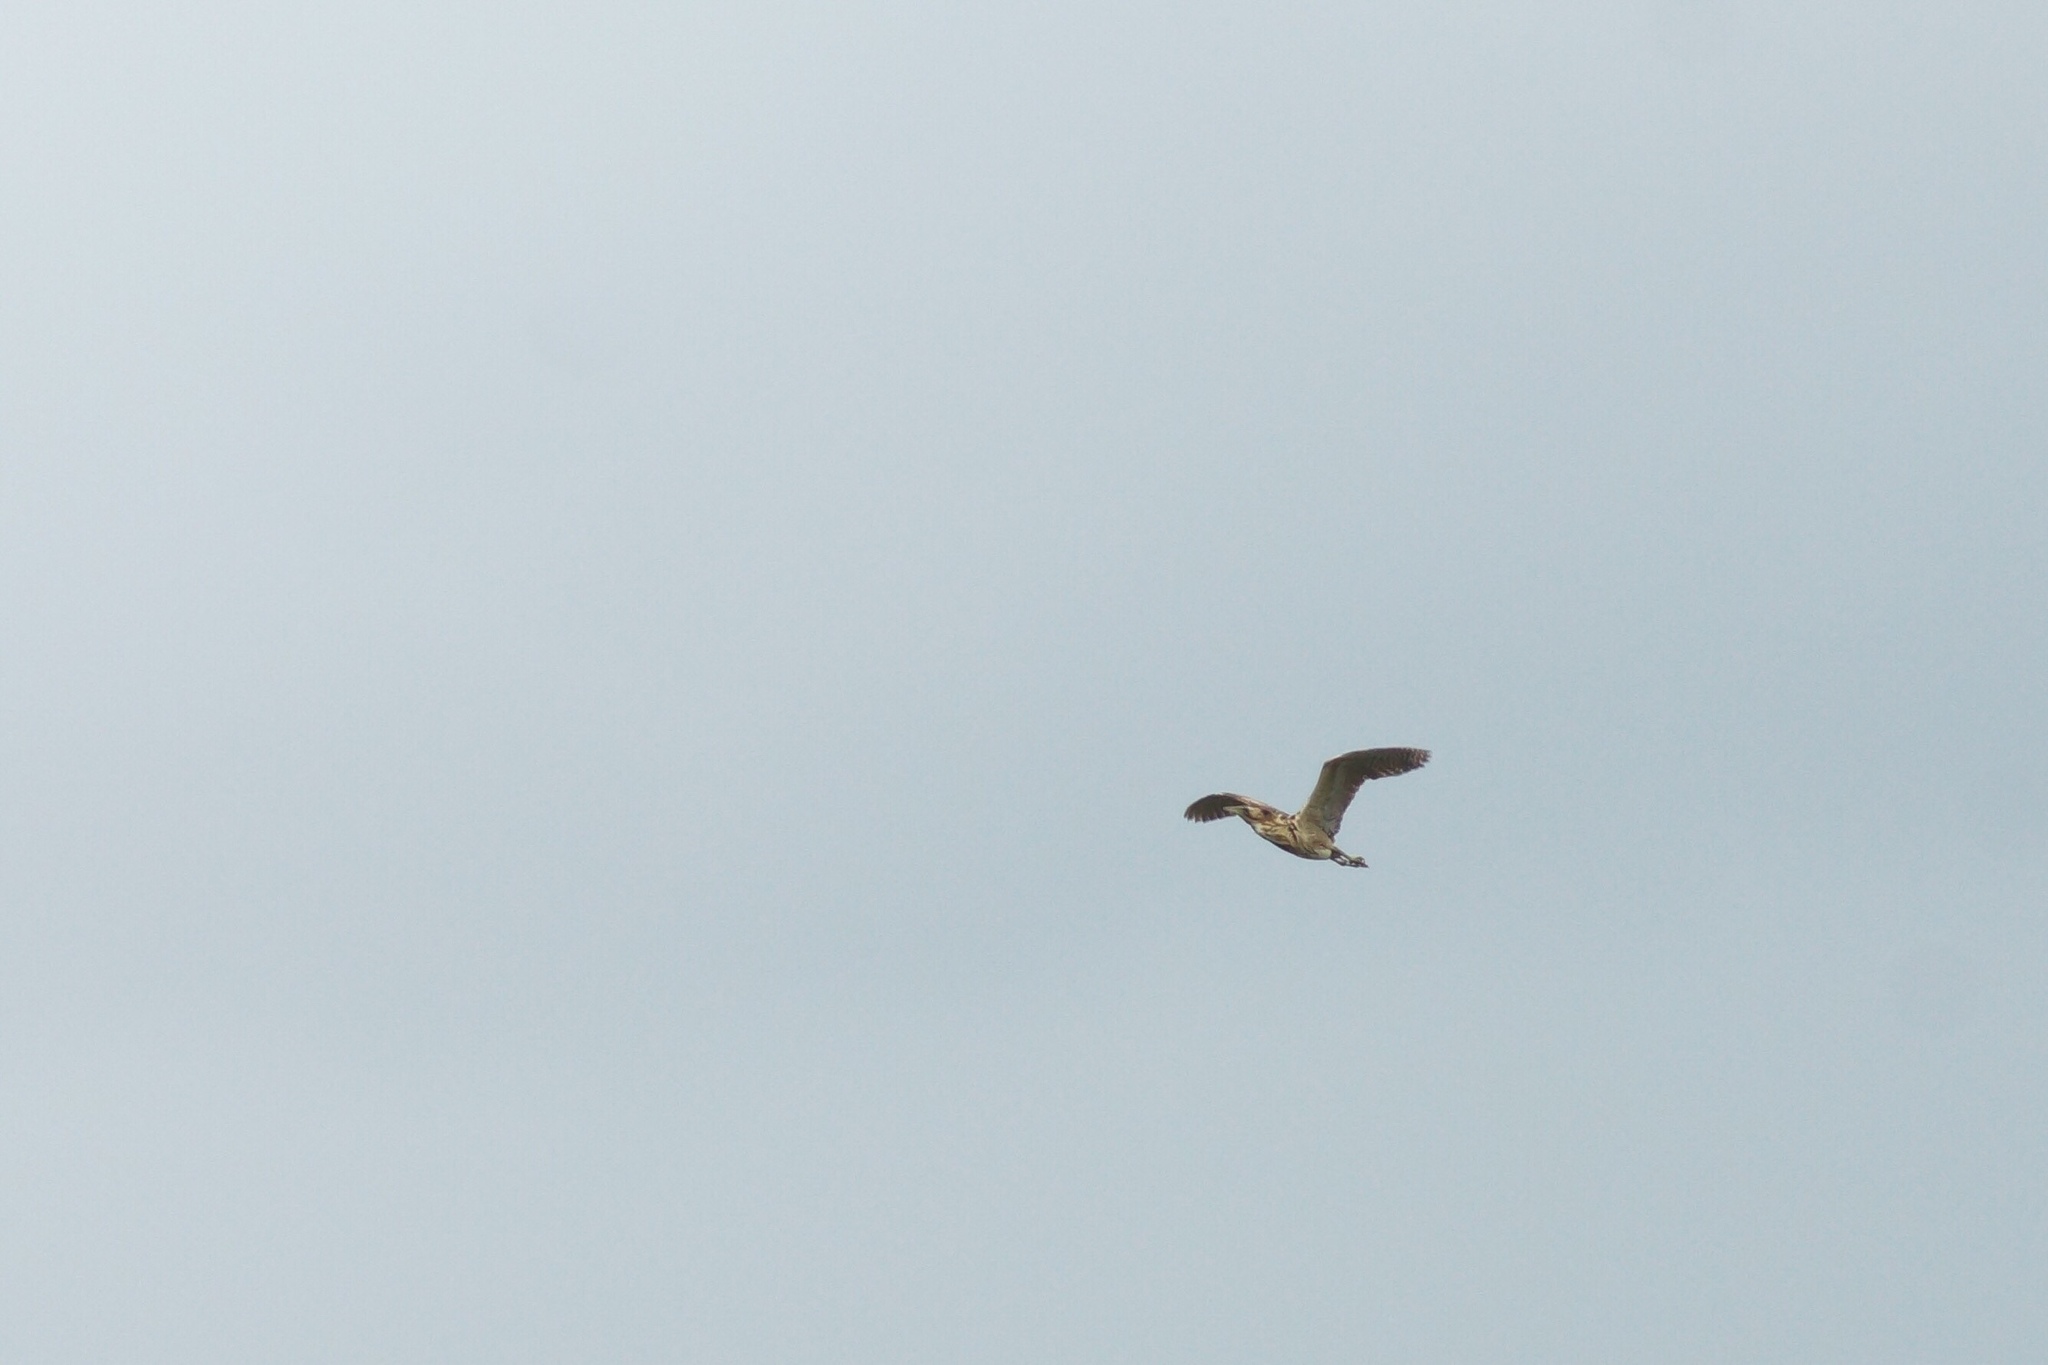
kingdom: Animalia
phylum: Chordata
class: Aves
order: Pelecaniformes
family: Ardeidae
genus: Botaurus
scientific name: Botaurus stellaris
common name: Eurasian bittern
